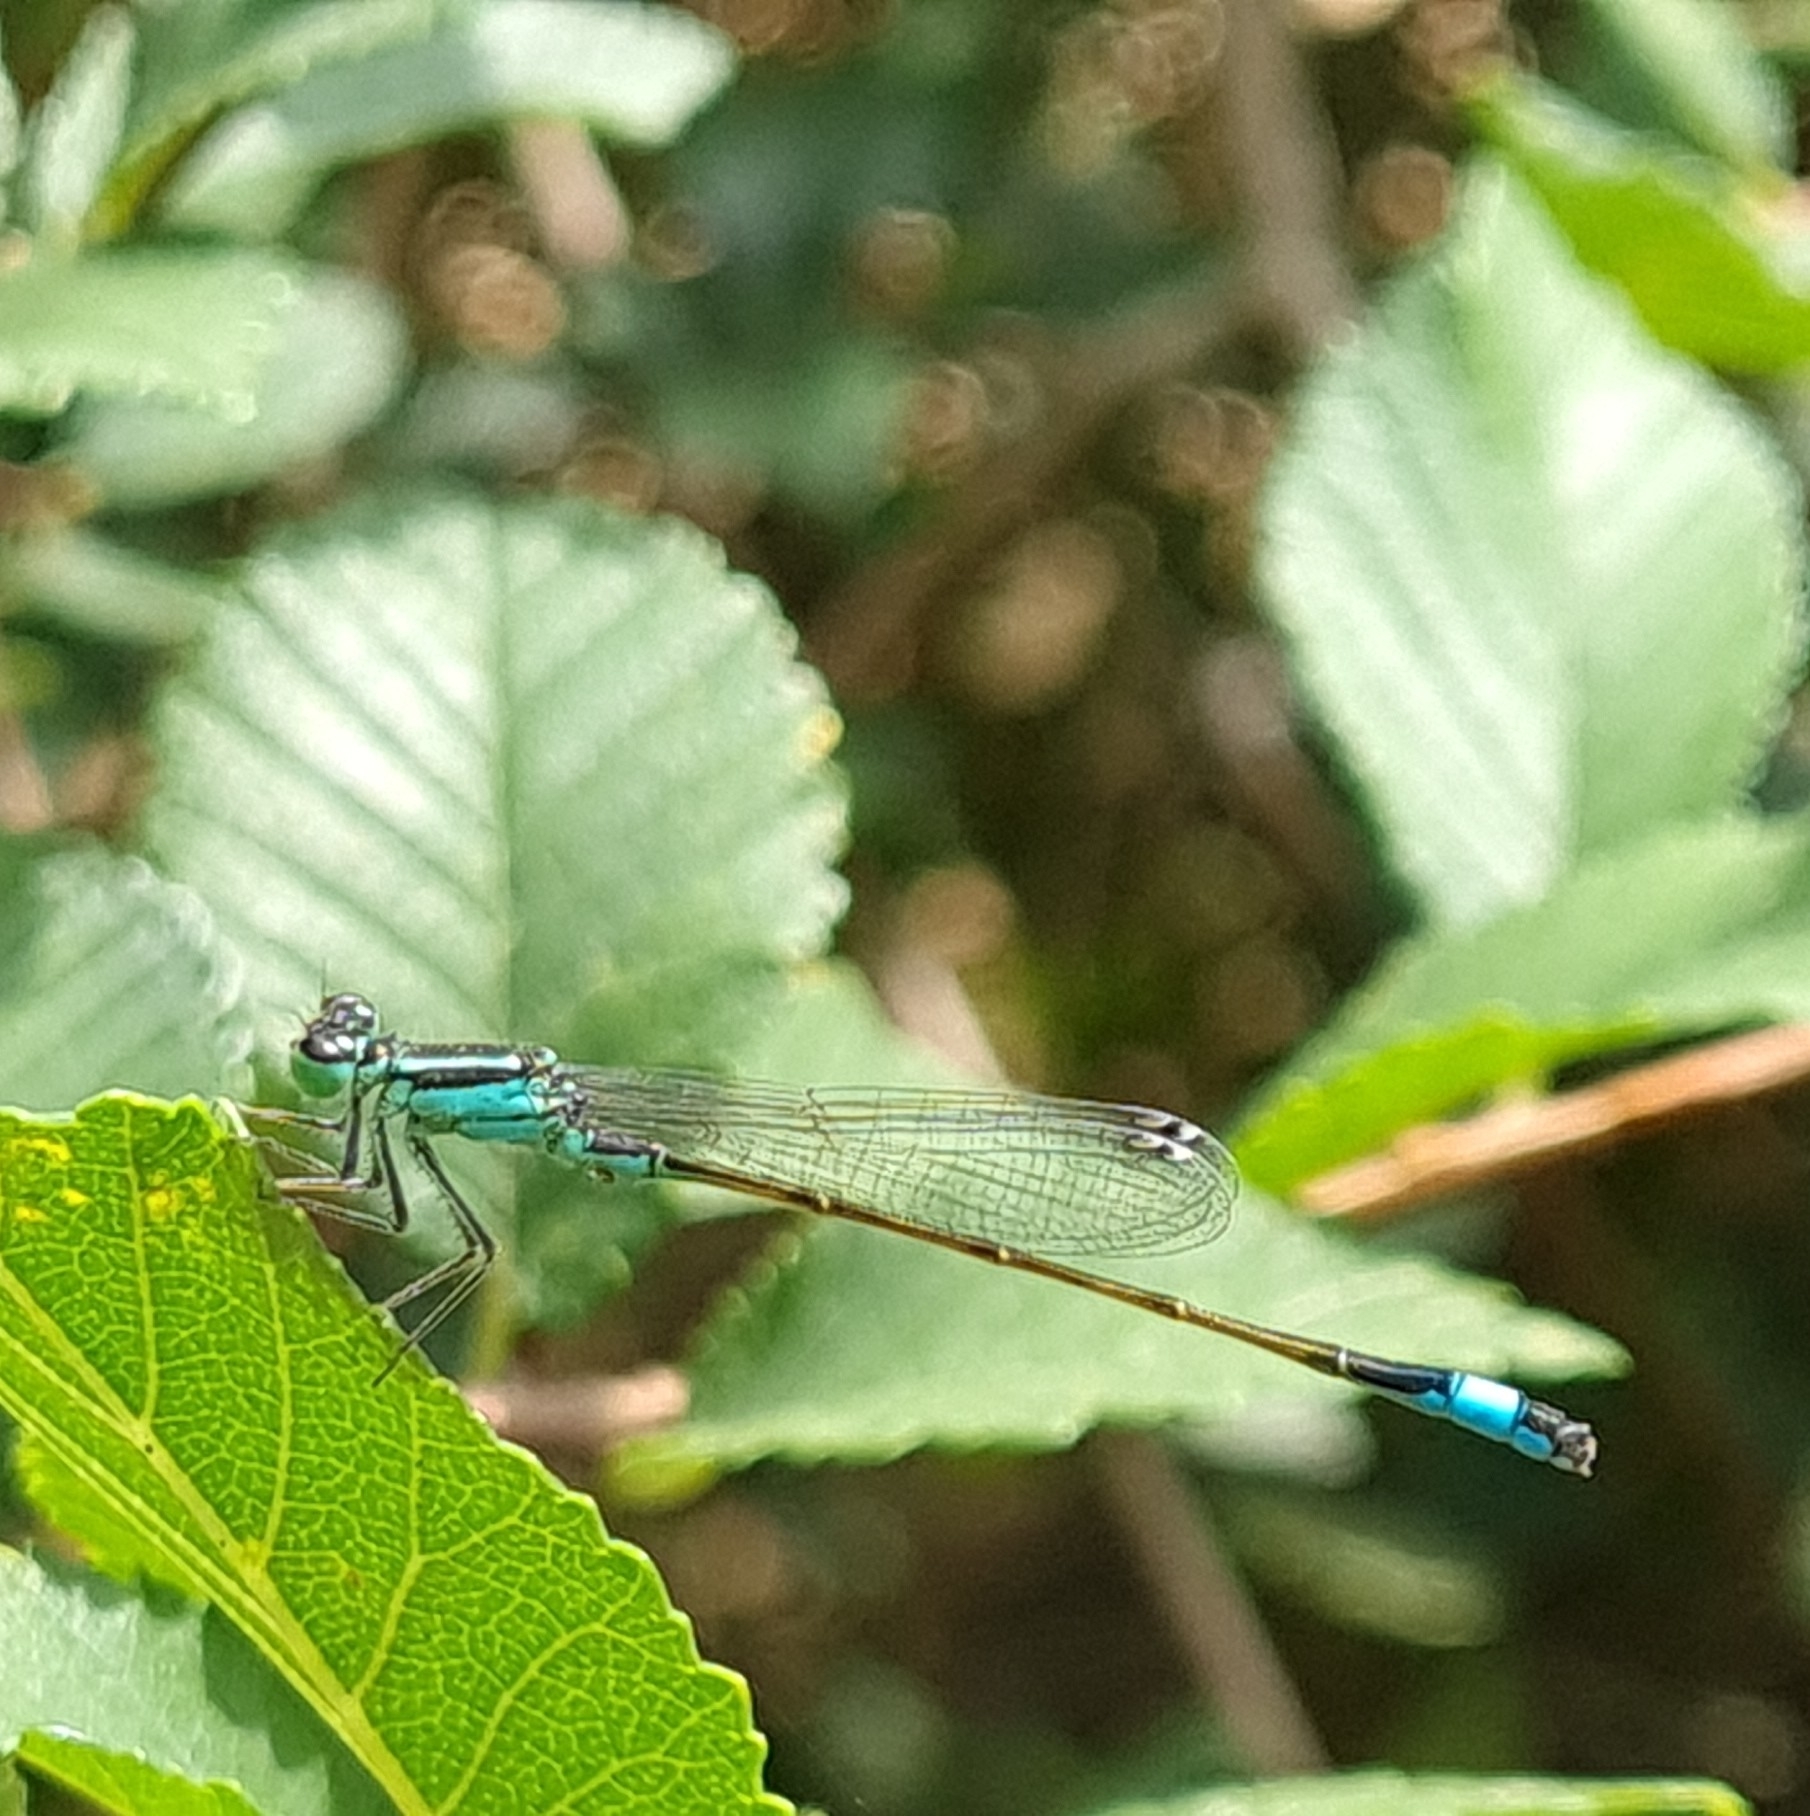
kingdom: Animalia
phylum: Arthropoda
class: Insecta
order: Odonata
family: Coenagrionidae
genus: Ischnura
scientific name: Ischnura graellsii
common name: Iberian bluetail
